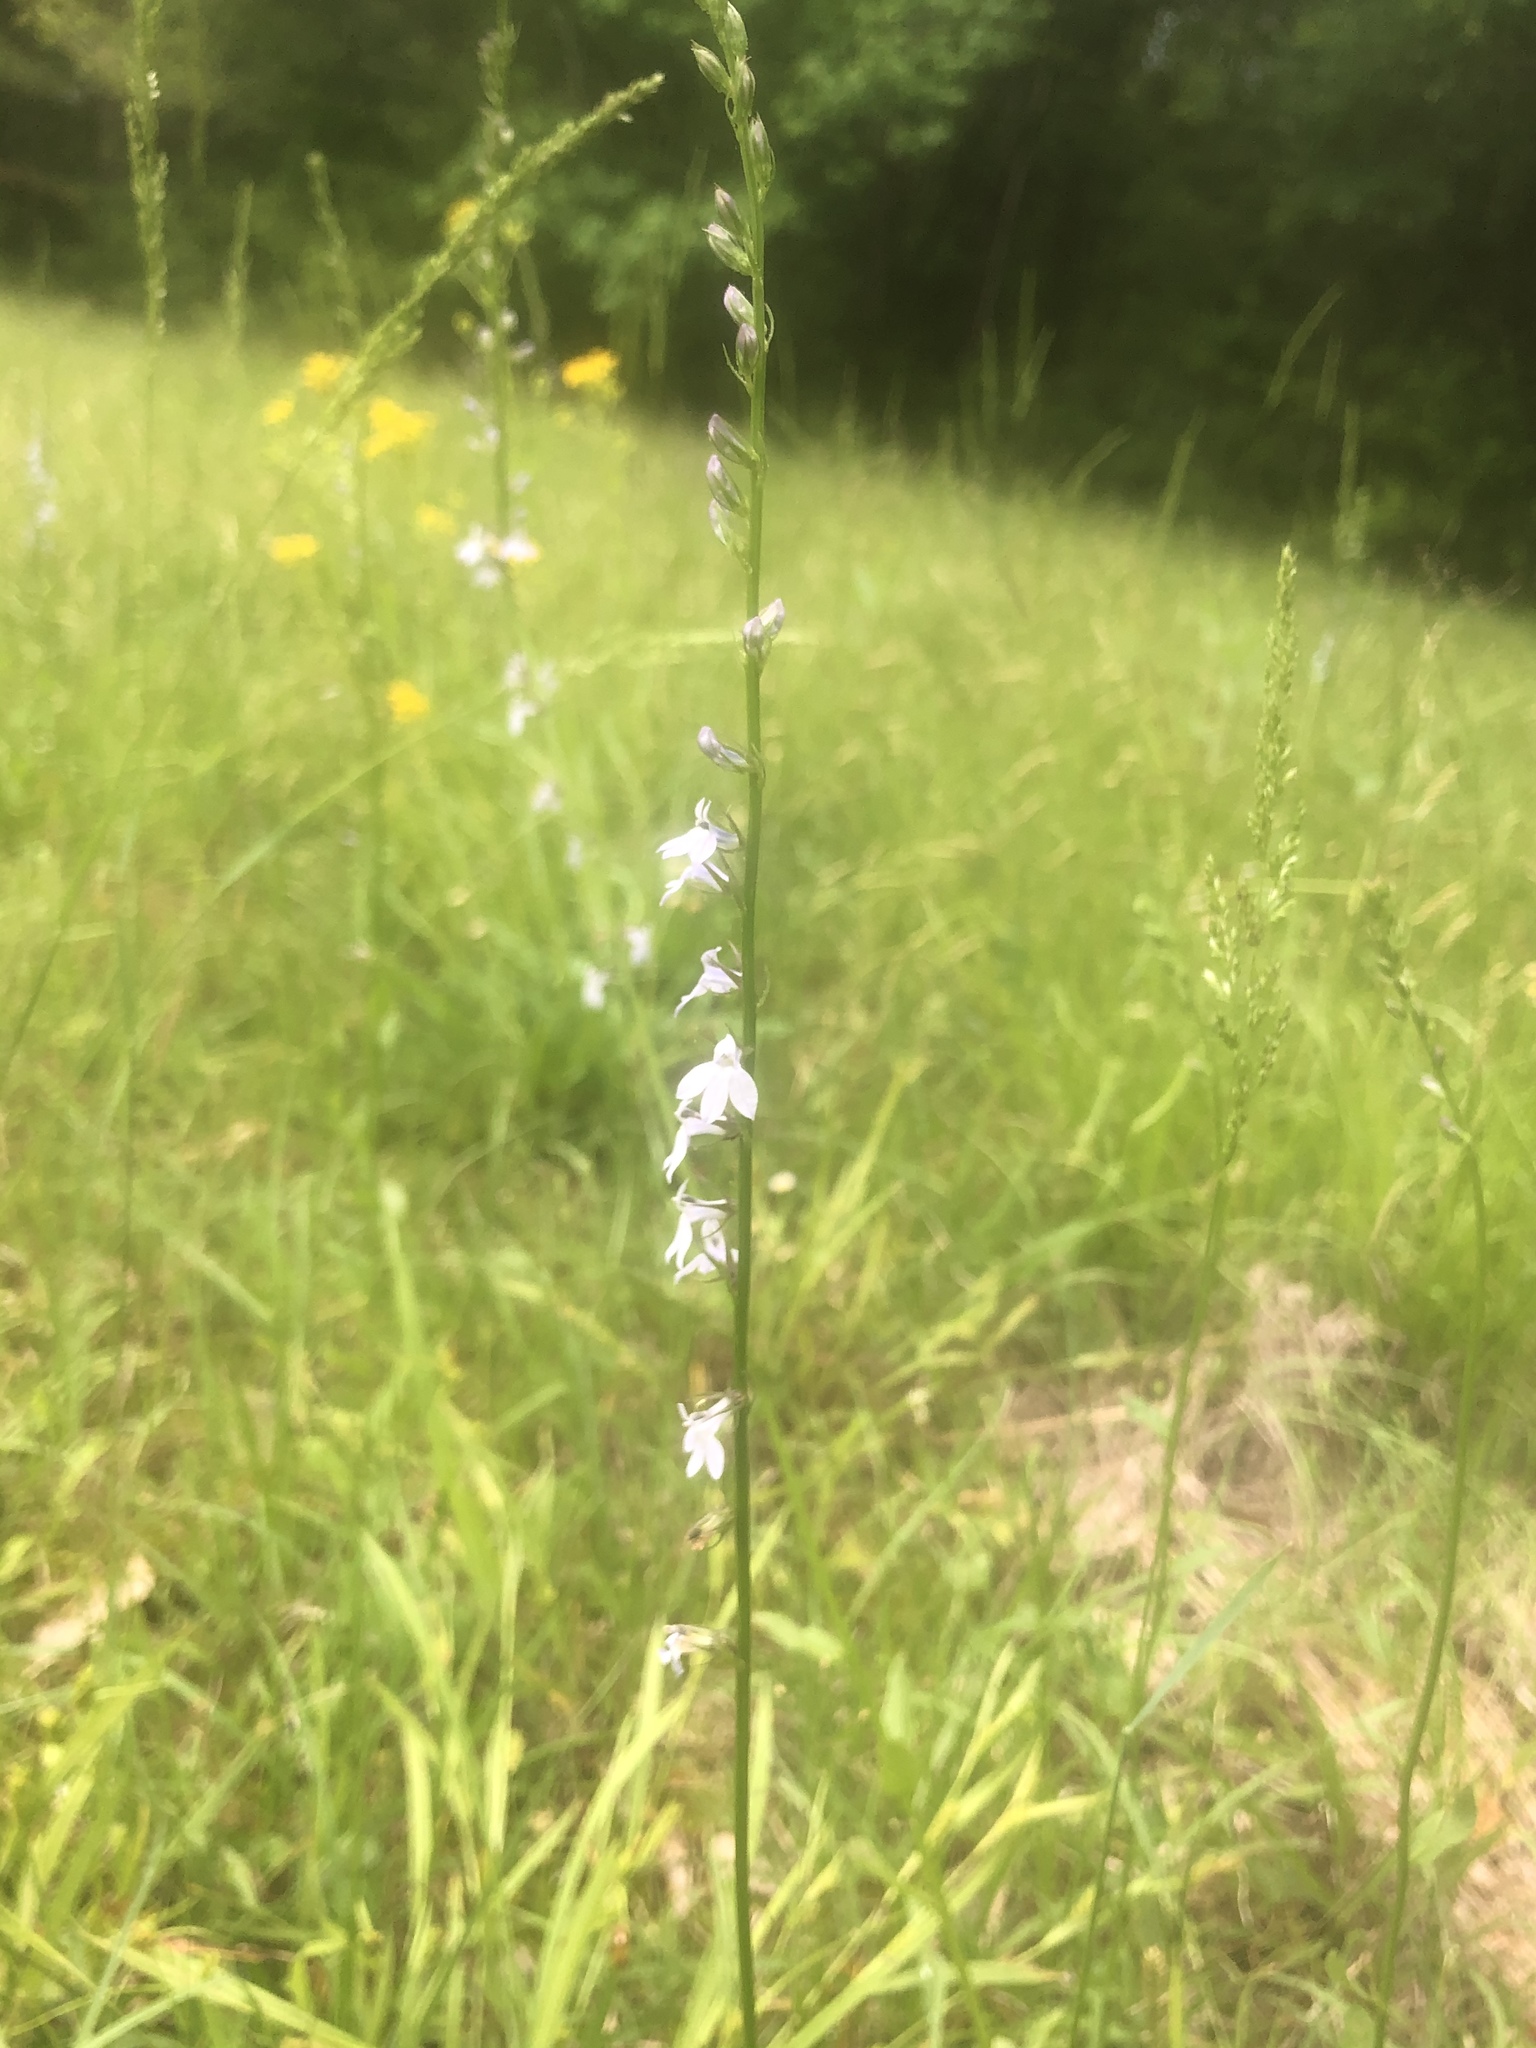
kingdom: Plantae
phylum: Tracheophyta
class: Magnoliopsida
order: Asterales
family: Campanulaceae
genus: Lobelia
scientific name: Lobelia appendiculata
